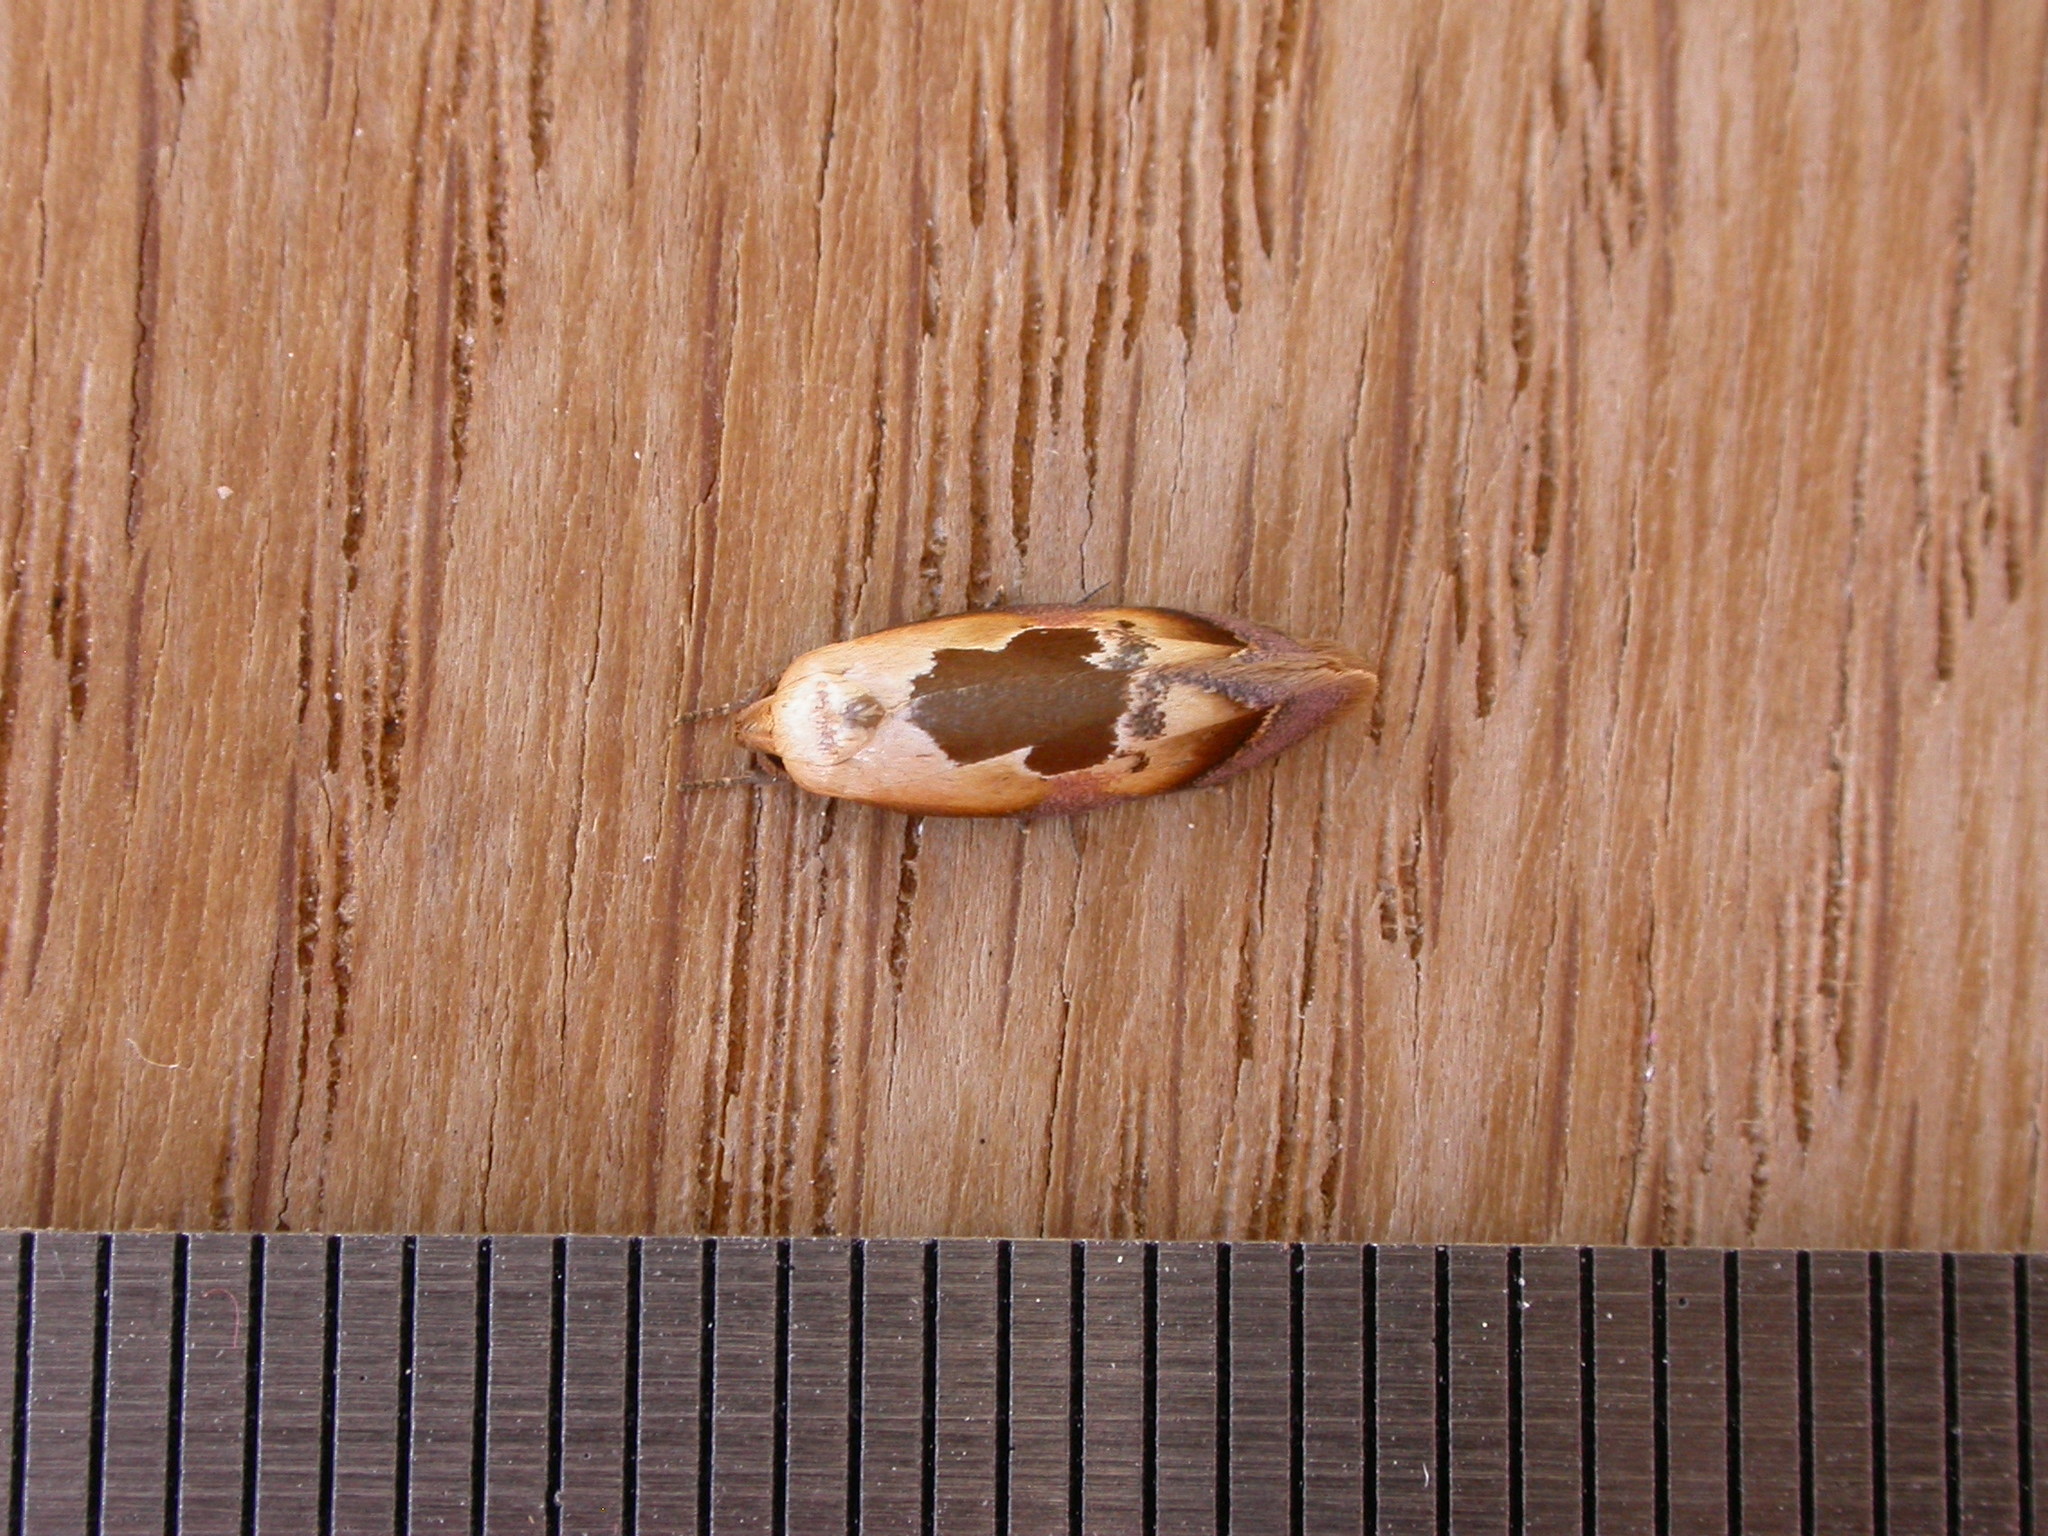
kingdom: Animalia
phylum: Arthropoda
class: Insecta
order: Lepidoptera
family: Oecophoridae
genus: Hoplomorpha
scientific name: Hoplomorpha camelaea
